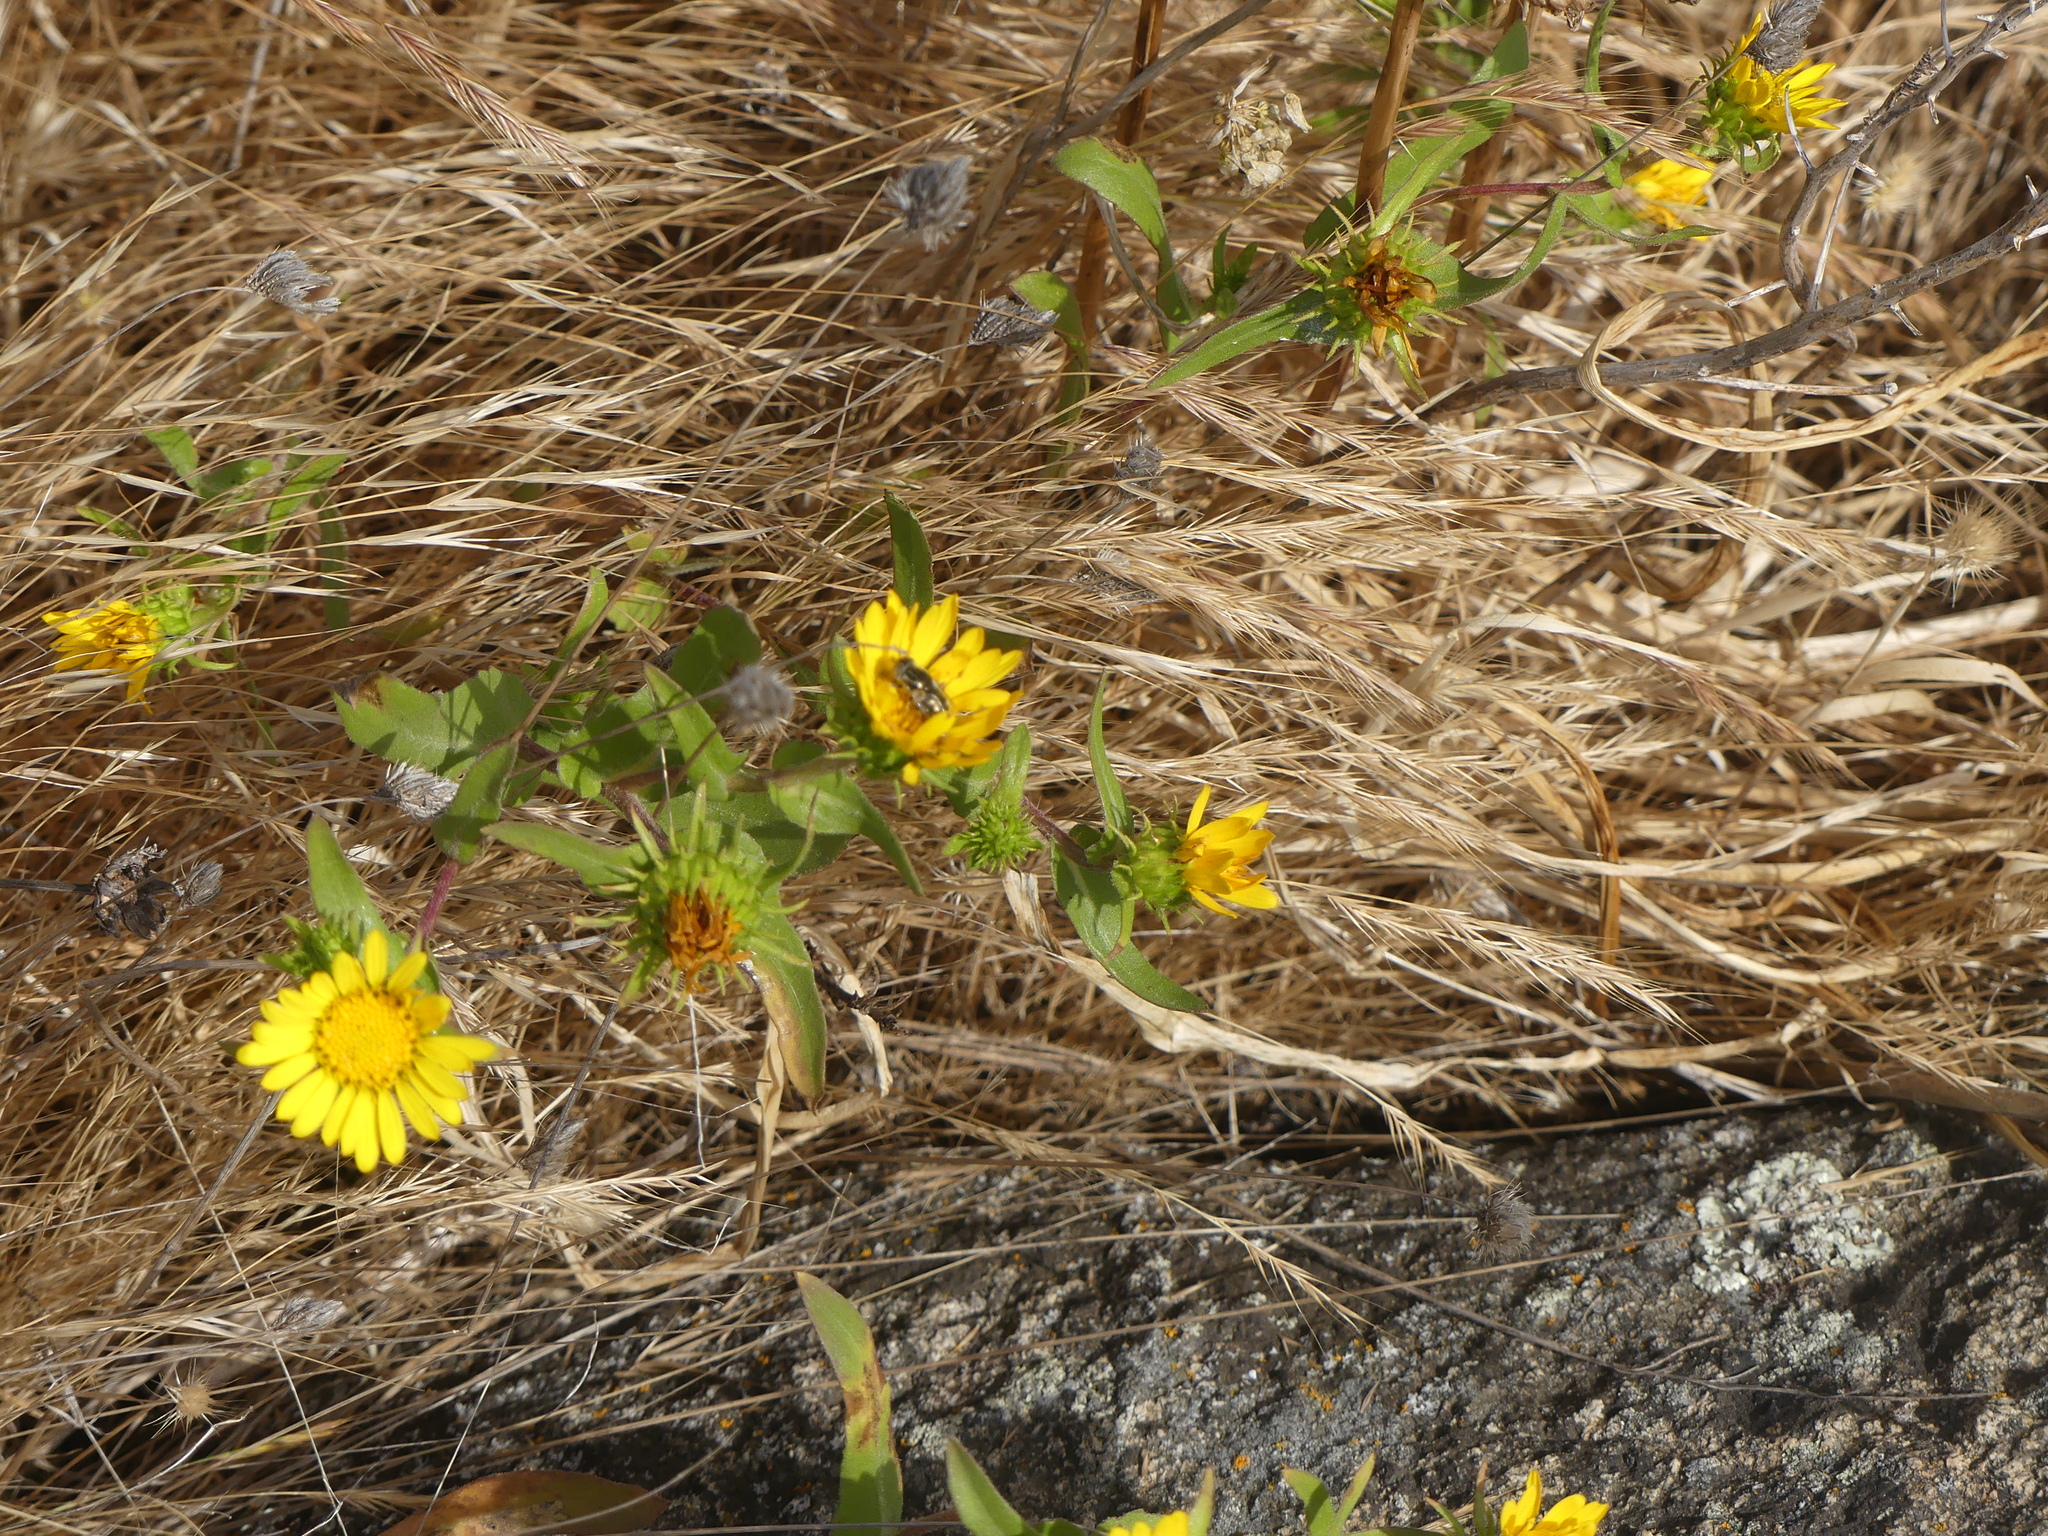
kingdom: Animalia
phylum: Arthropoda
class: Insecta
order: Diptera
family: Syrphidae
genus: Eristalinus
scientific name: Eristalinus aeneus
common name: Syrphid fly
